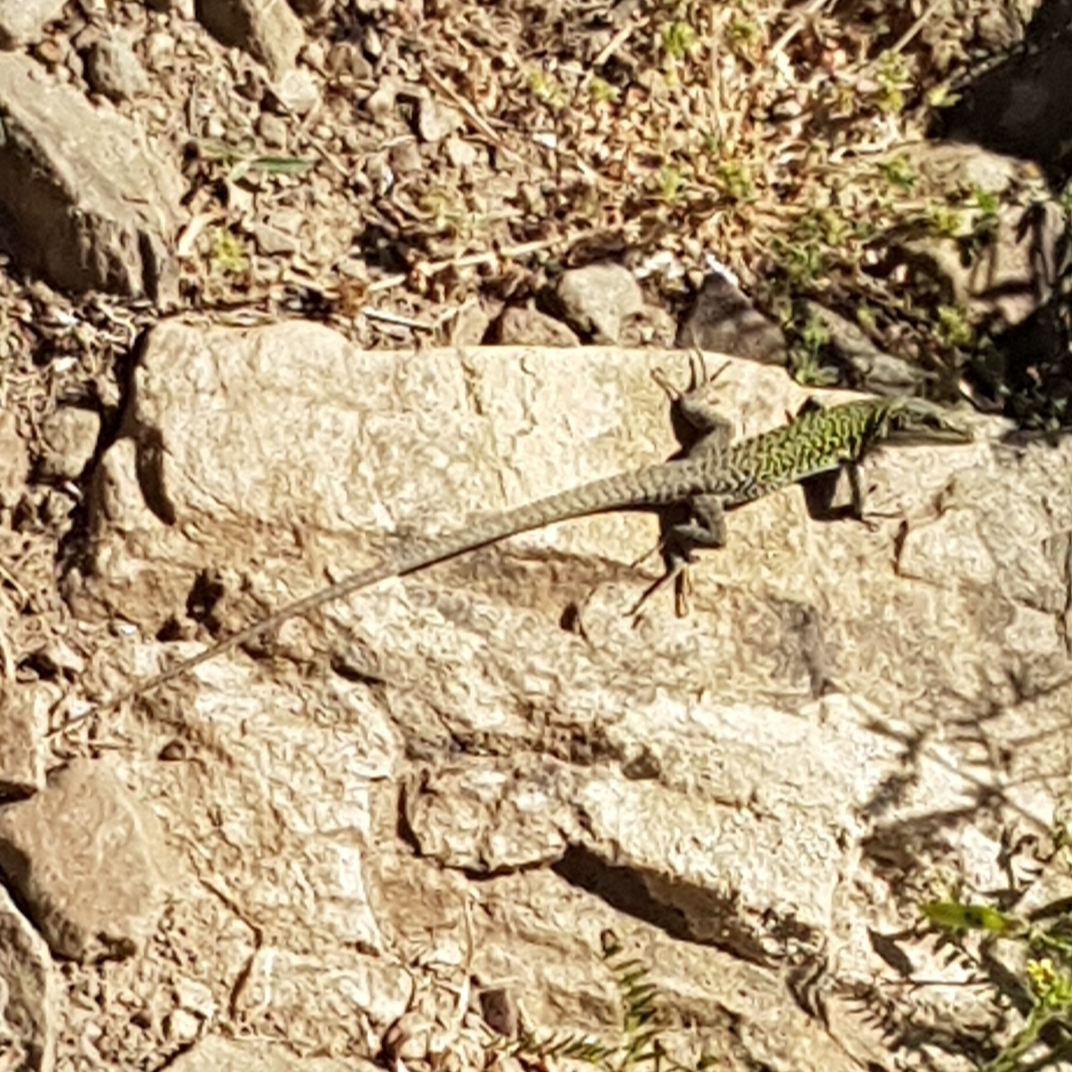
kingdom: Animalia
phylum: Chordata
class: Squamata
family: Lacertidae
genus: Podarcis
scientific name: Podarcis siculus
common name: Italian wall lizard
